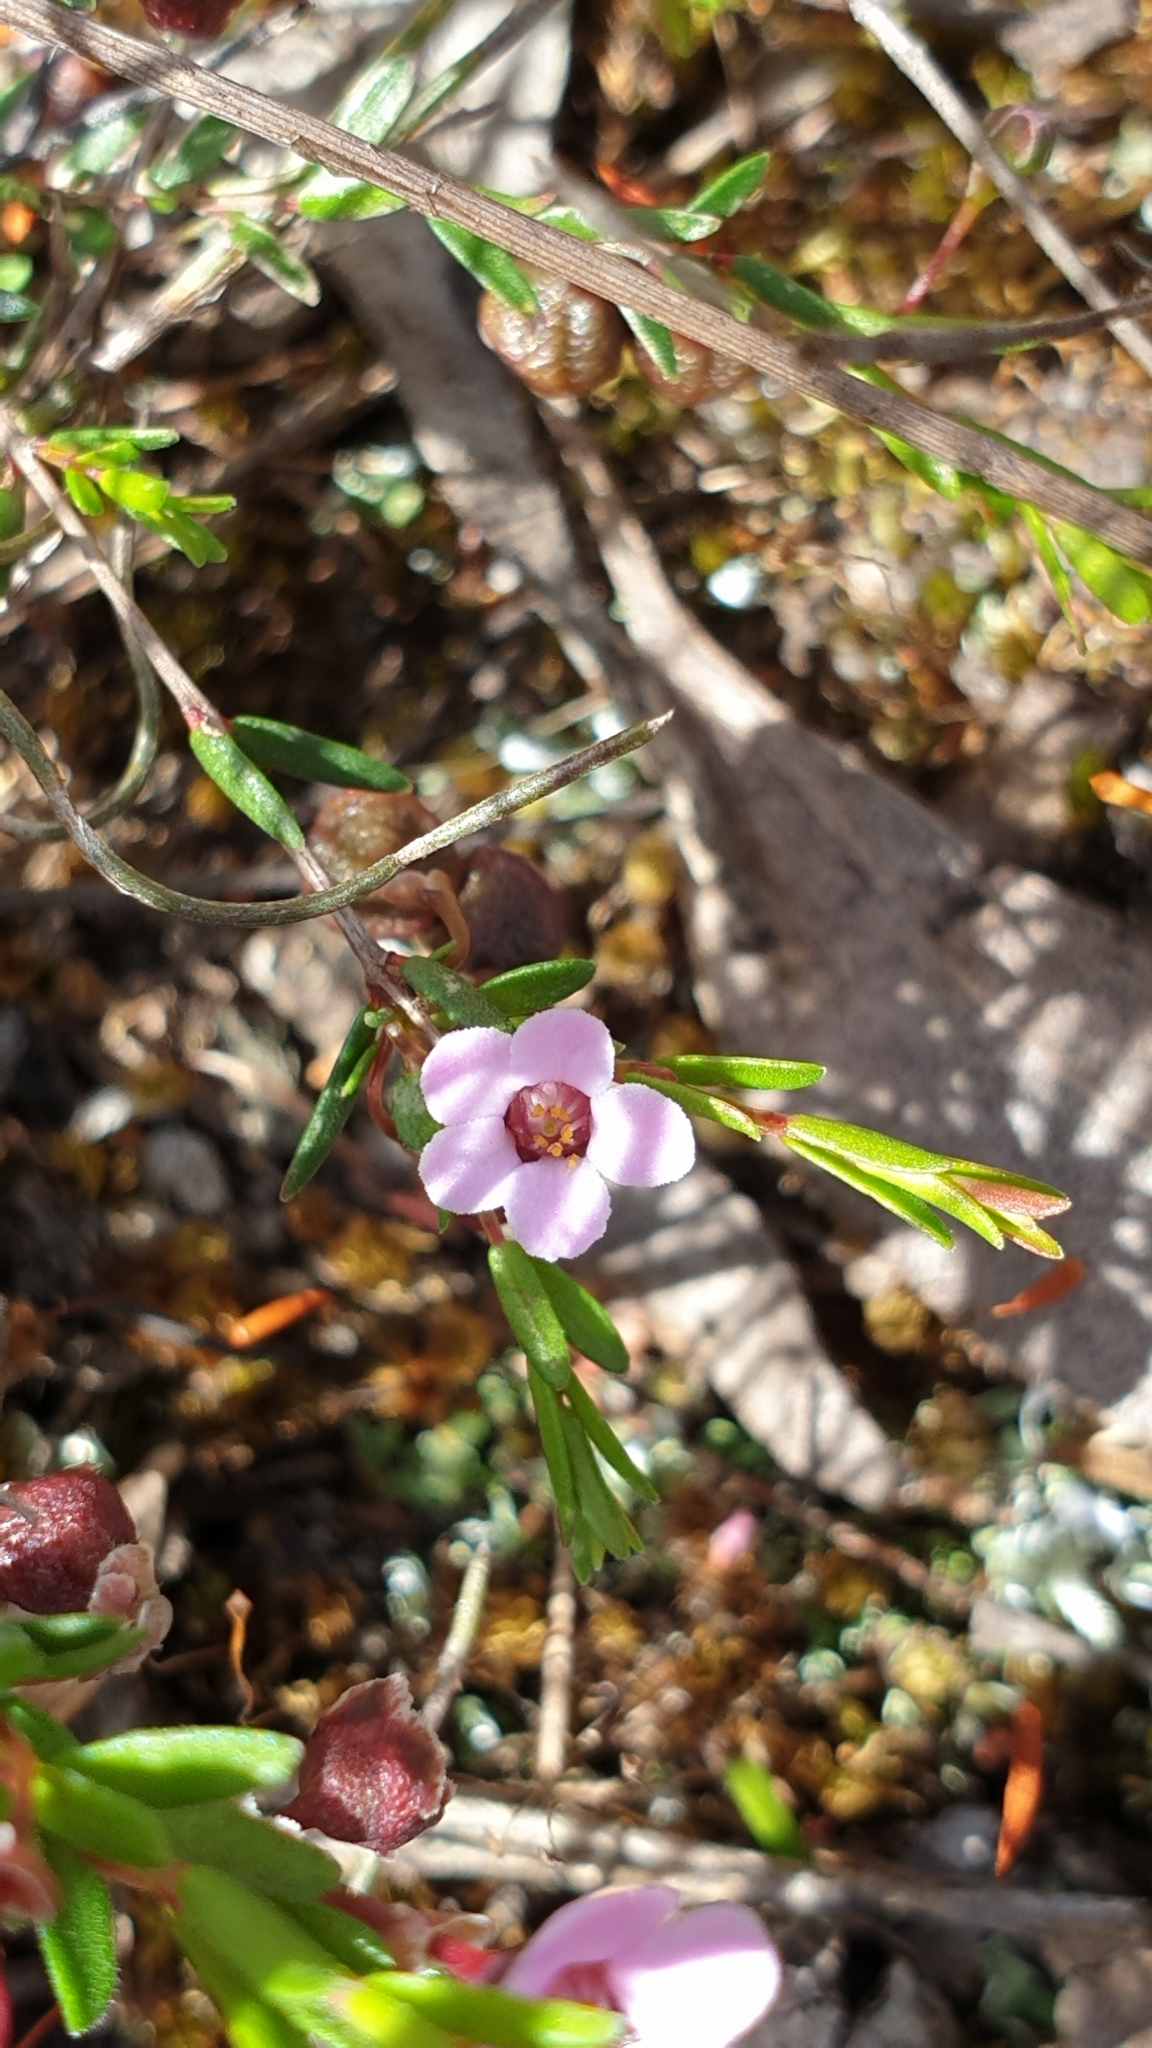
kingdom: Plantae
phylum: Tracheophyta
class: Magnoliopsida
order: Myrtales
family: Myrtaceae
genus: Euryomyrtus
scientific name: Euryomyrtus ramosissima
